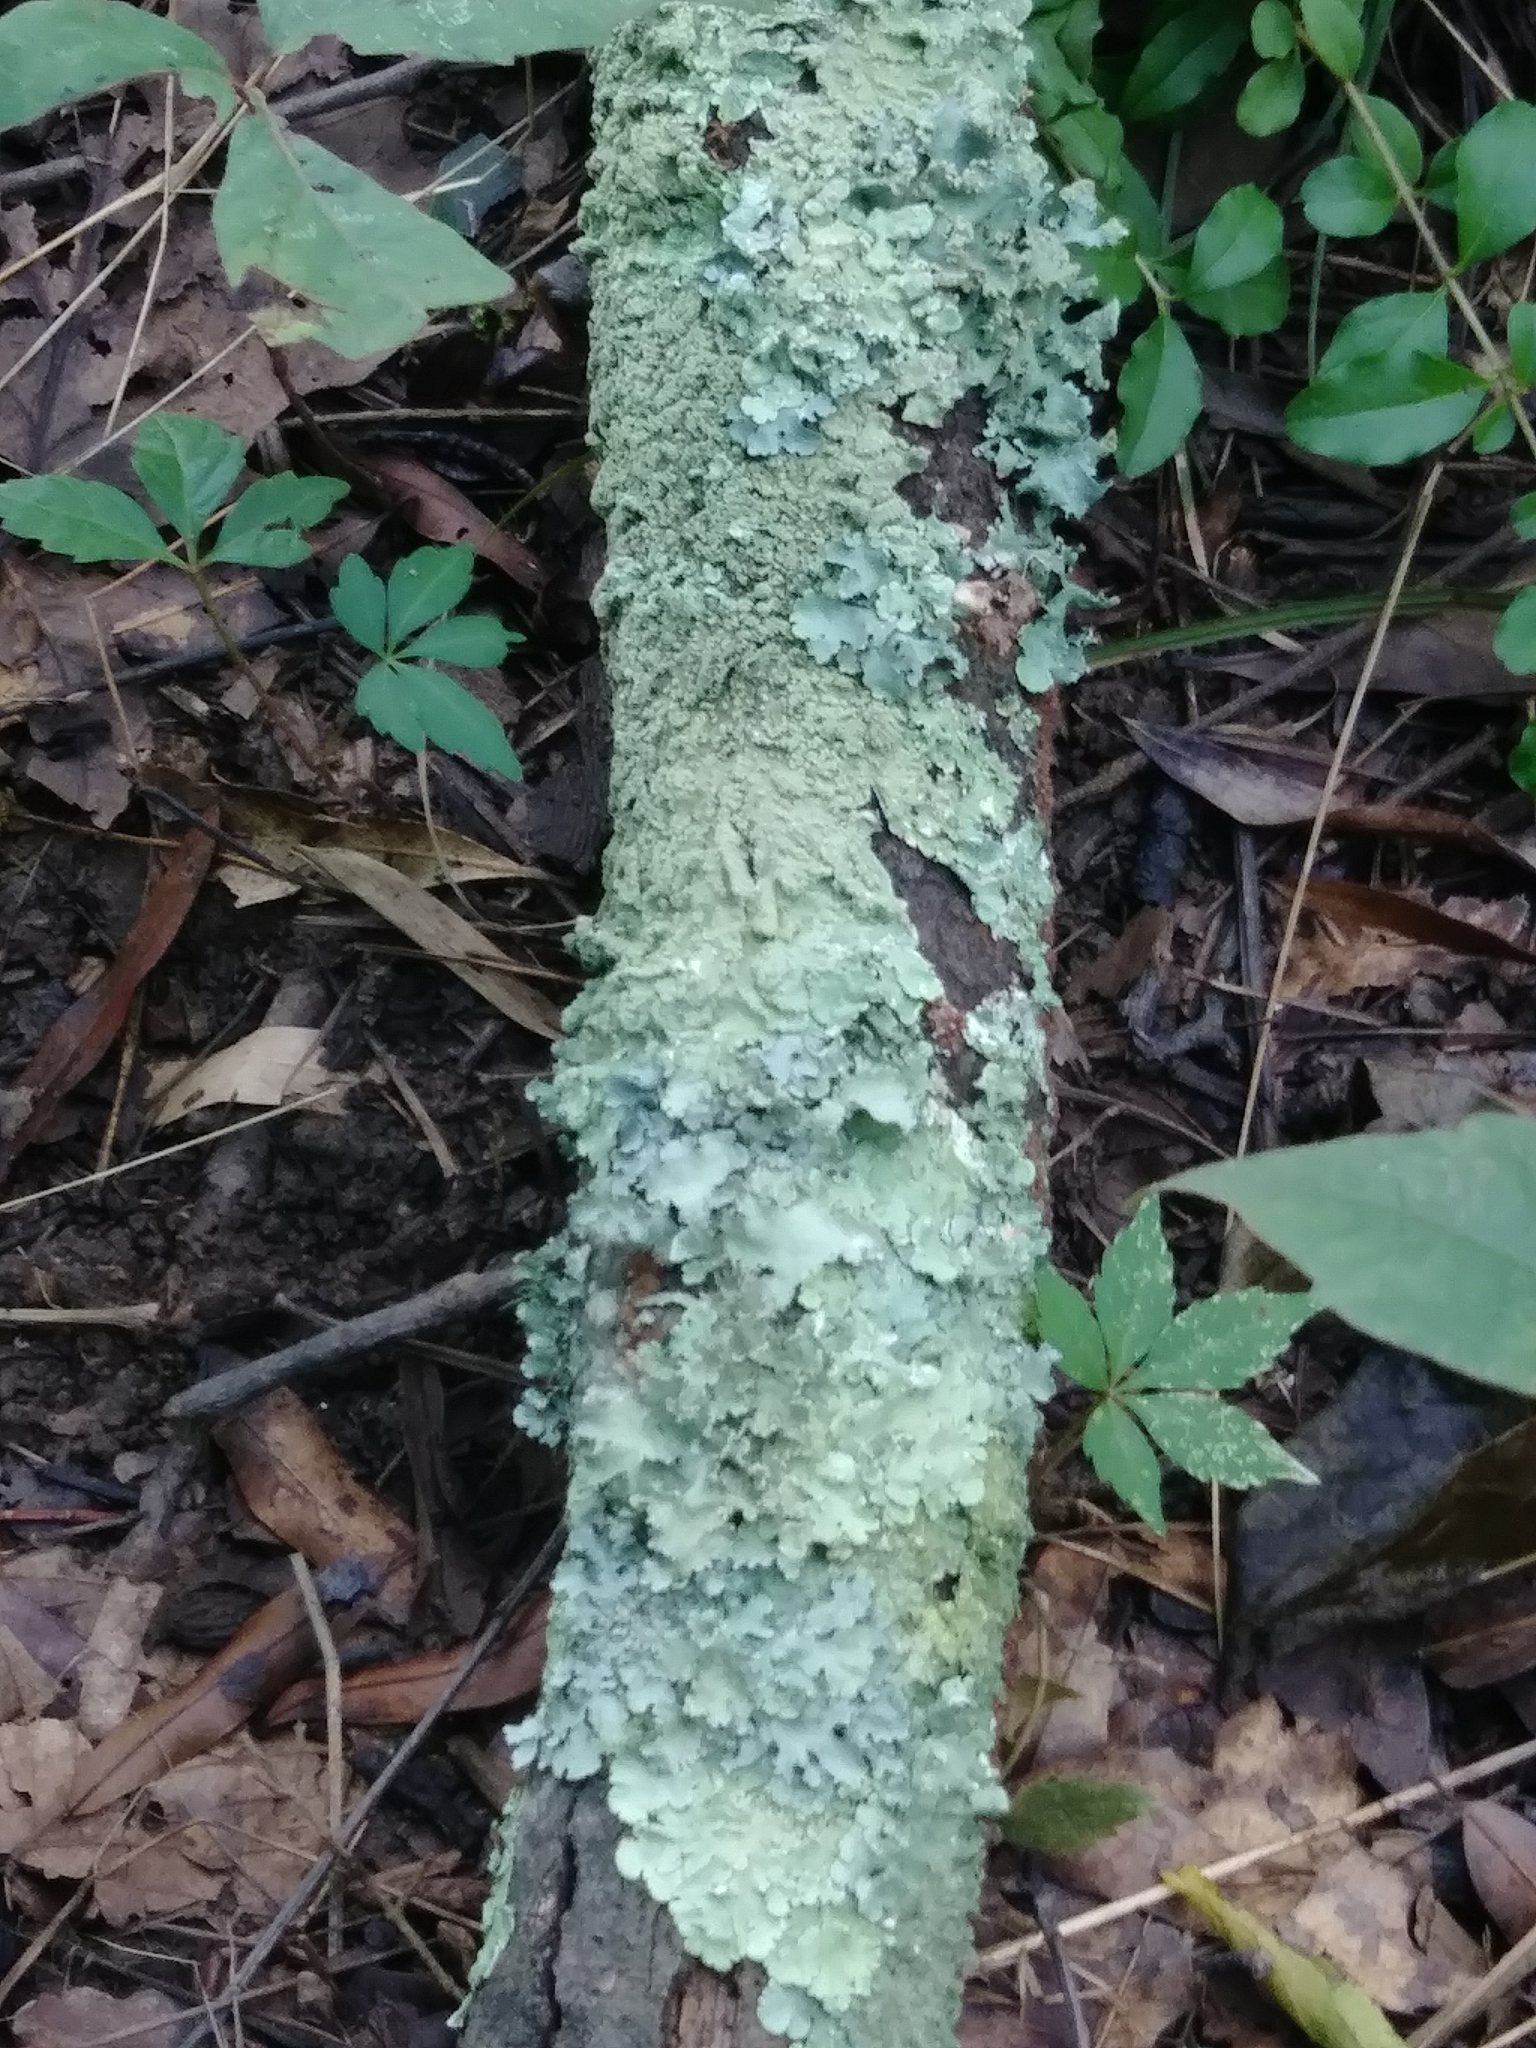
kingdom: Fungi
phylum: Ascomycota
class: Lecanoromycetes
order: Lecanorales
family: Parmeliaceae
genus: Flavoparmelia
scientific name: Flavoparmelia caperata
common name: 40-mile per hour lichen
